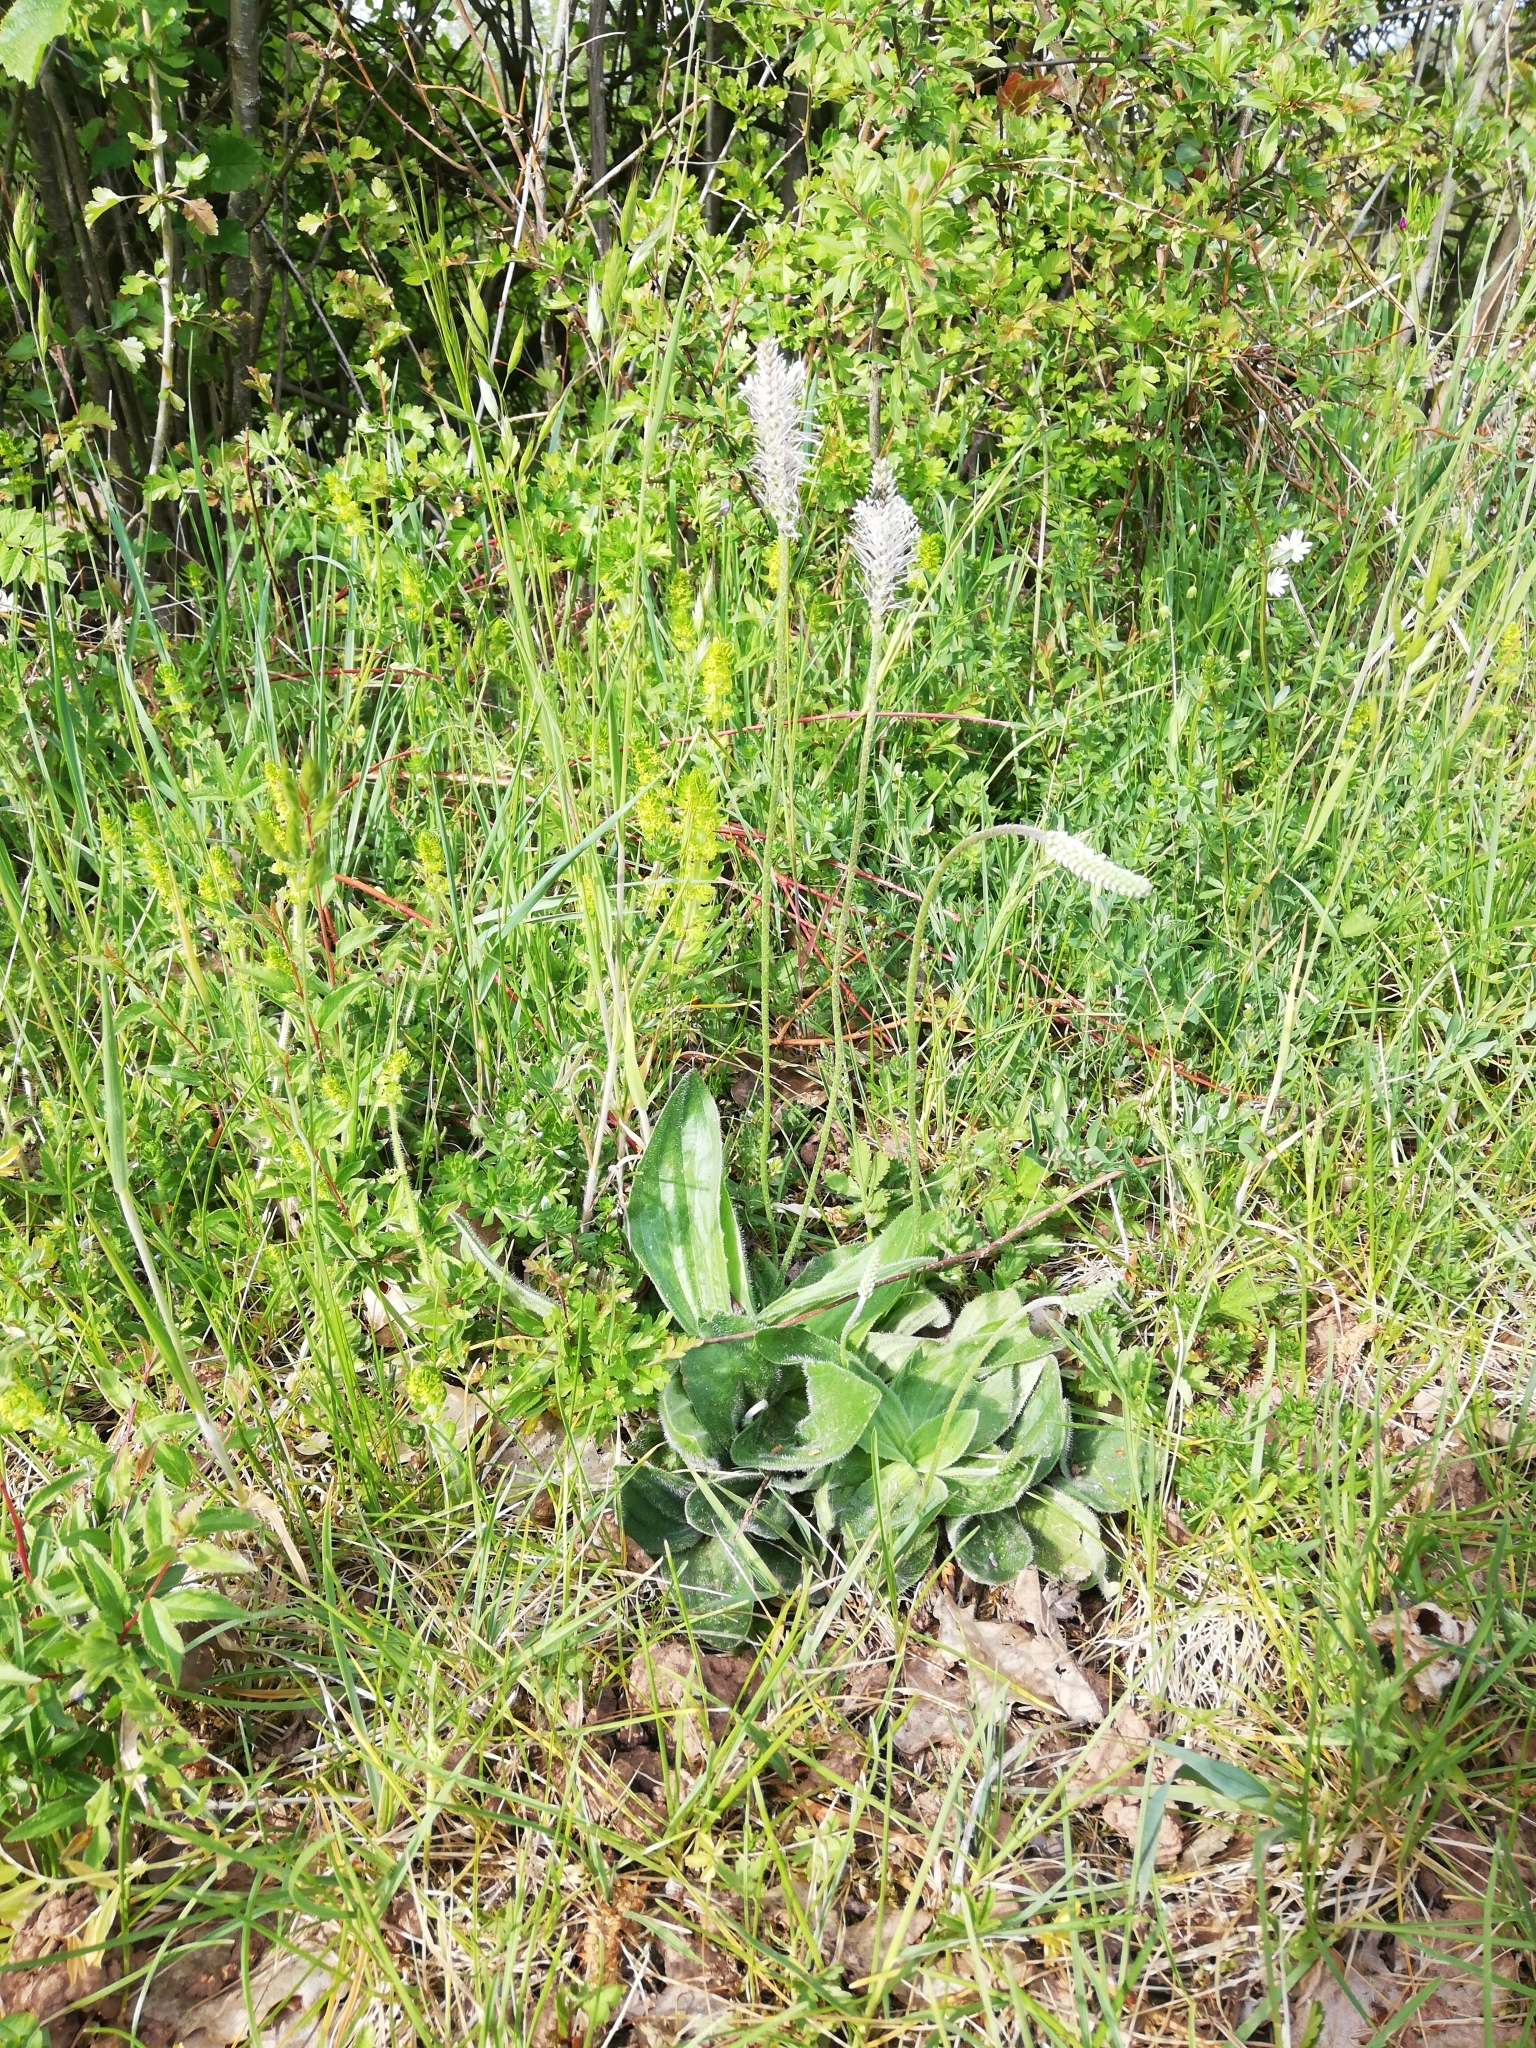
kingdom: Plantae
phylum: Tracheophyta
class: Magnoliopsida
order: Lamiales
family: Plantaginaceae
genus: Plantago
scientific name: Plantago media
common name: Hoary plantain
